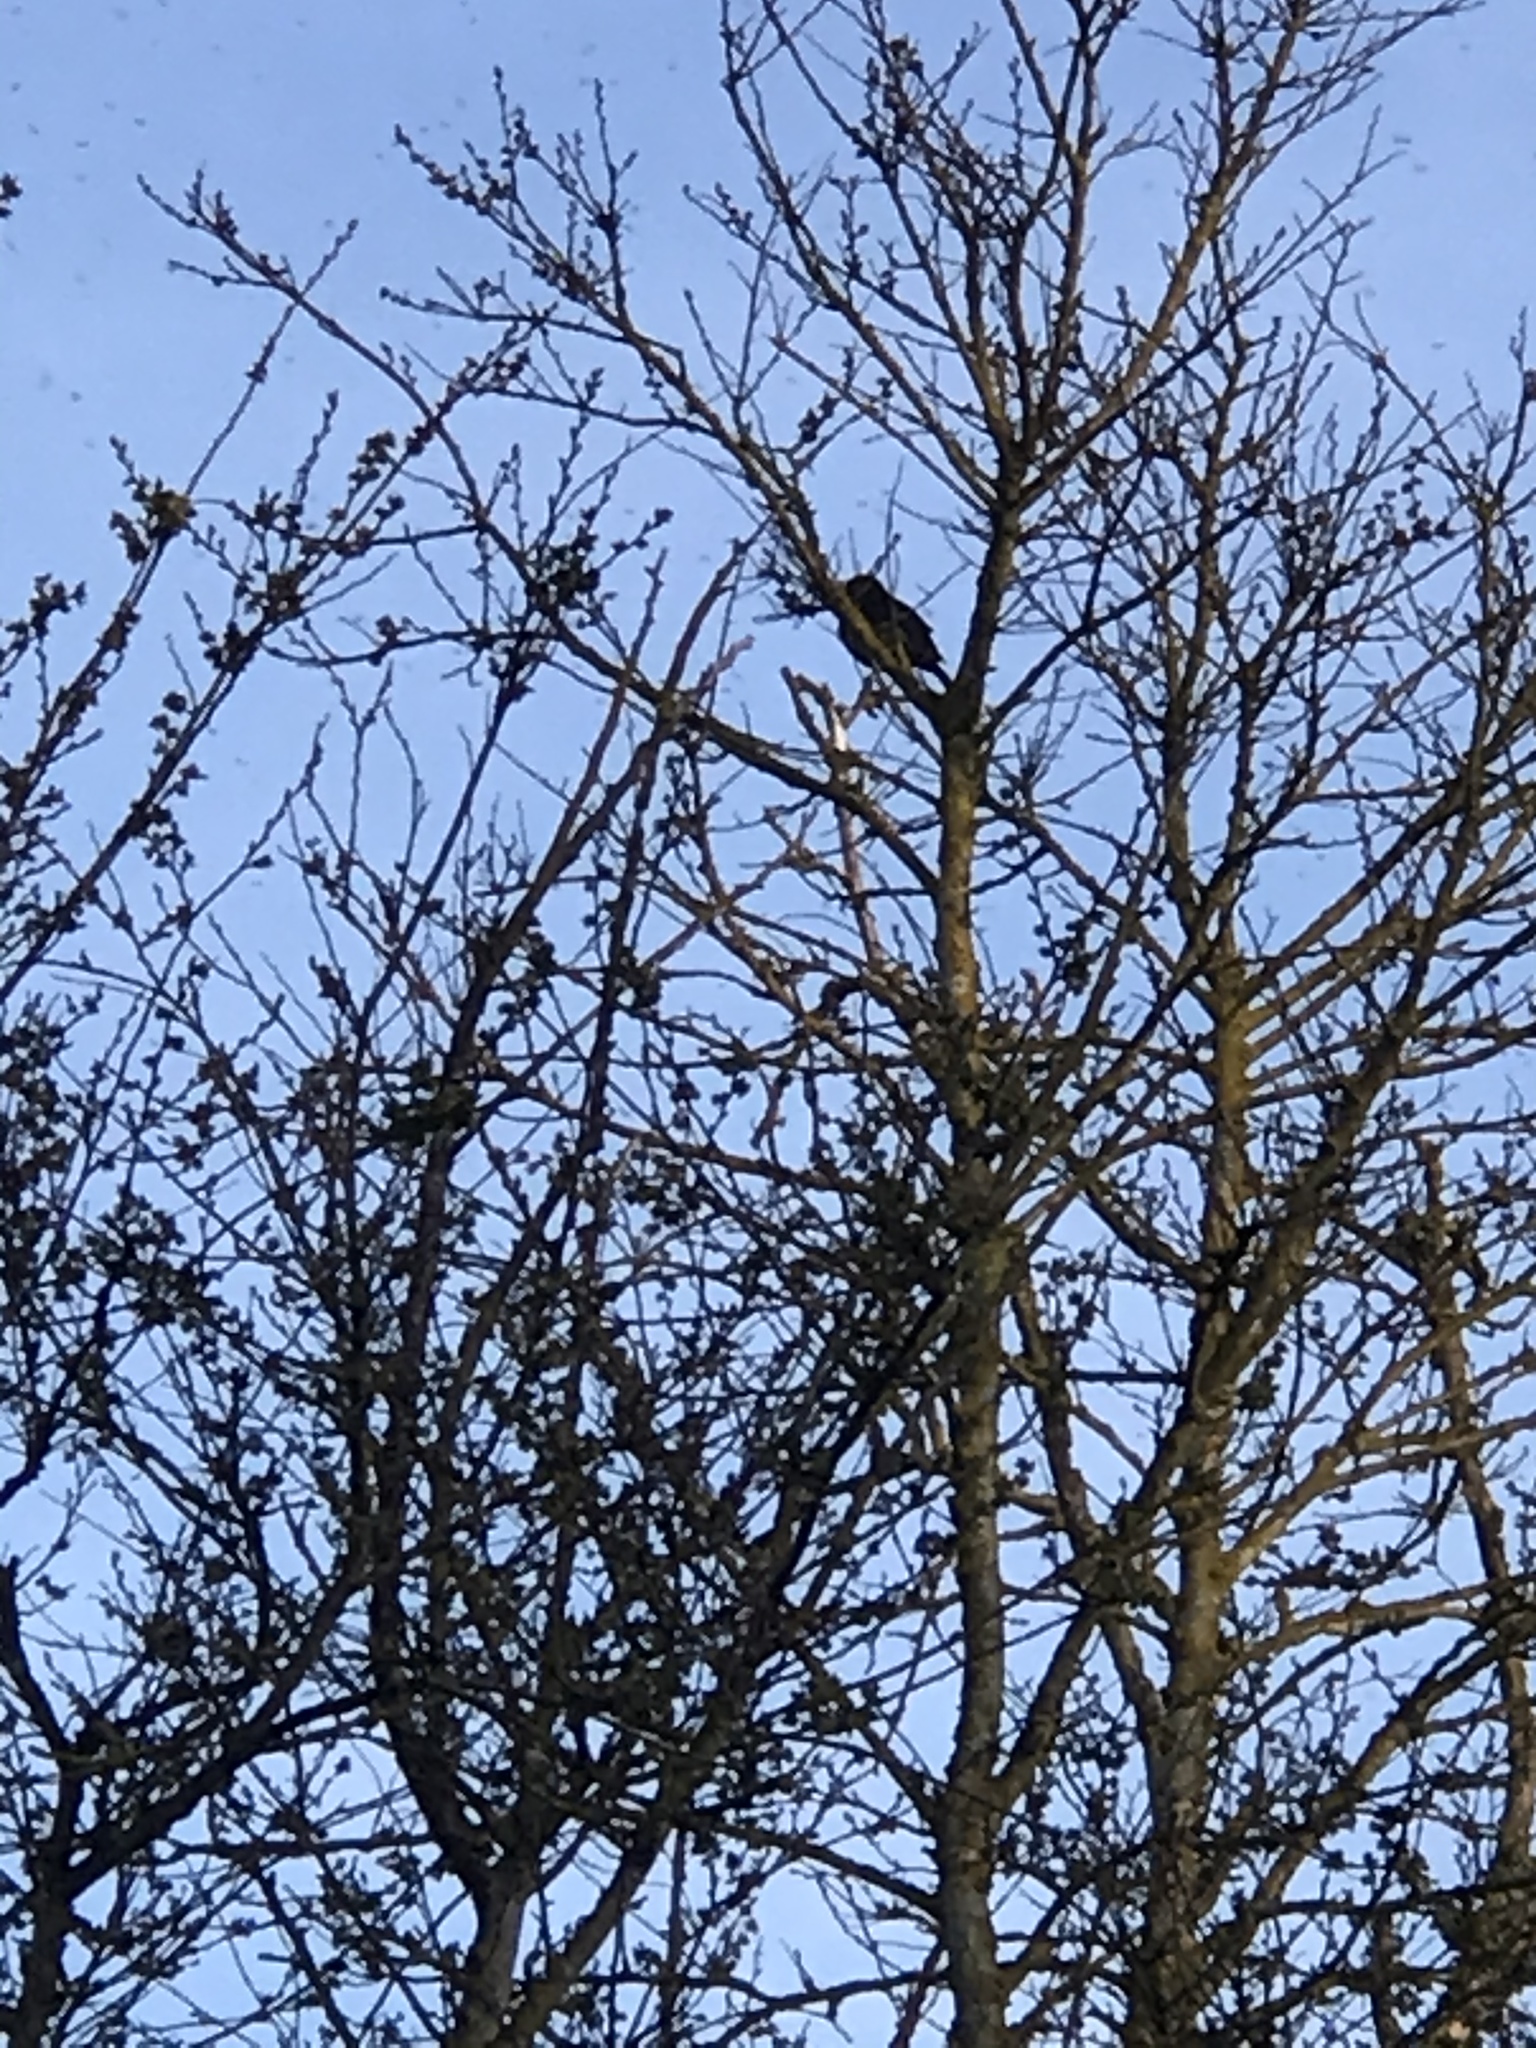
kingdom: Animalia
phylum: Chordata
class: Aves
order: Passeriformes
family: Turdidae
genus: Turdus
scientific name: Turdus merula
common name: Common blackbird
